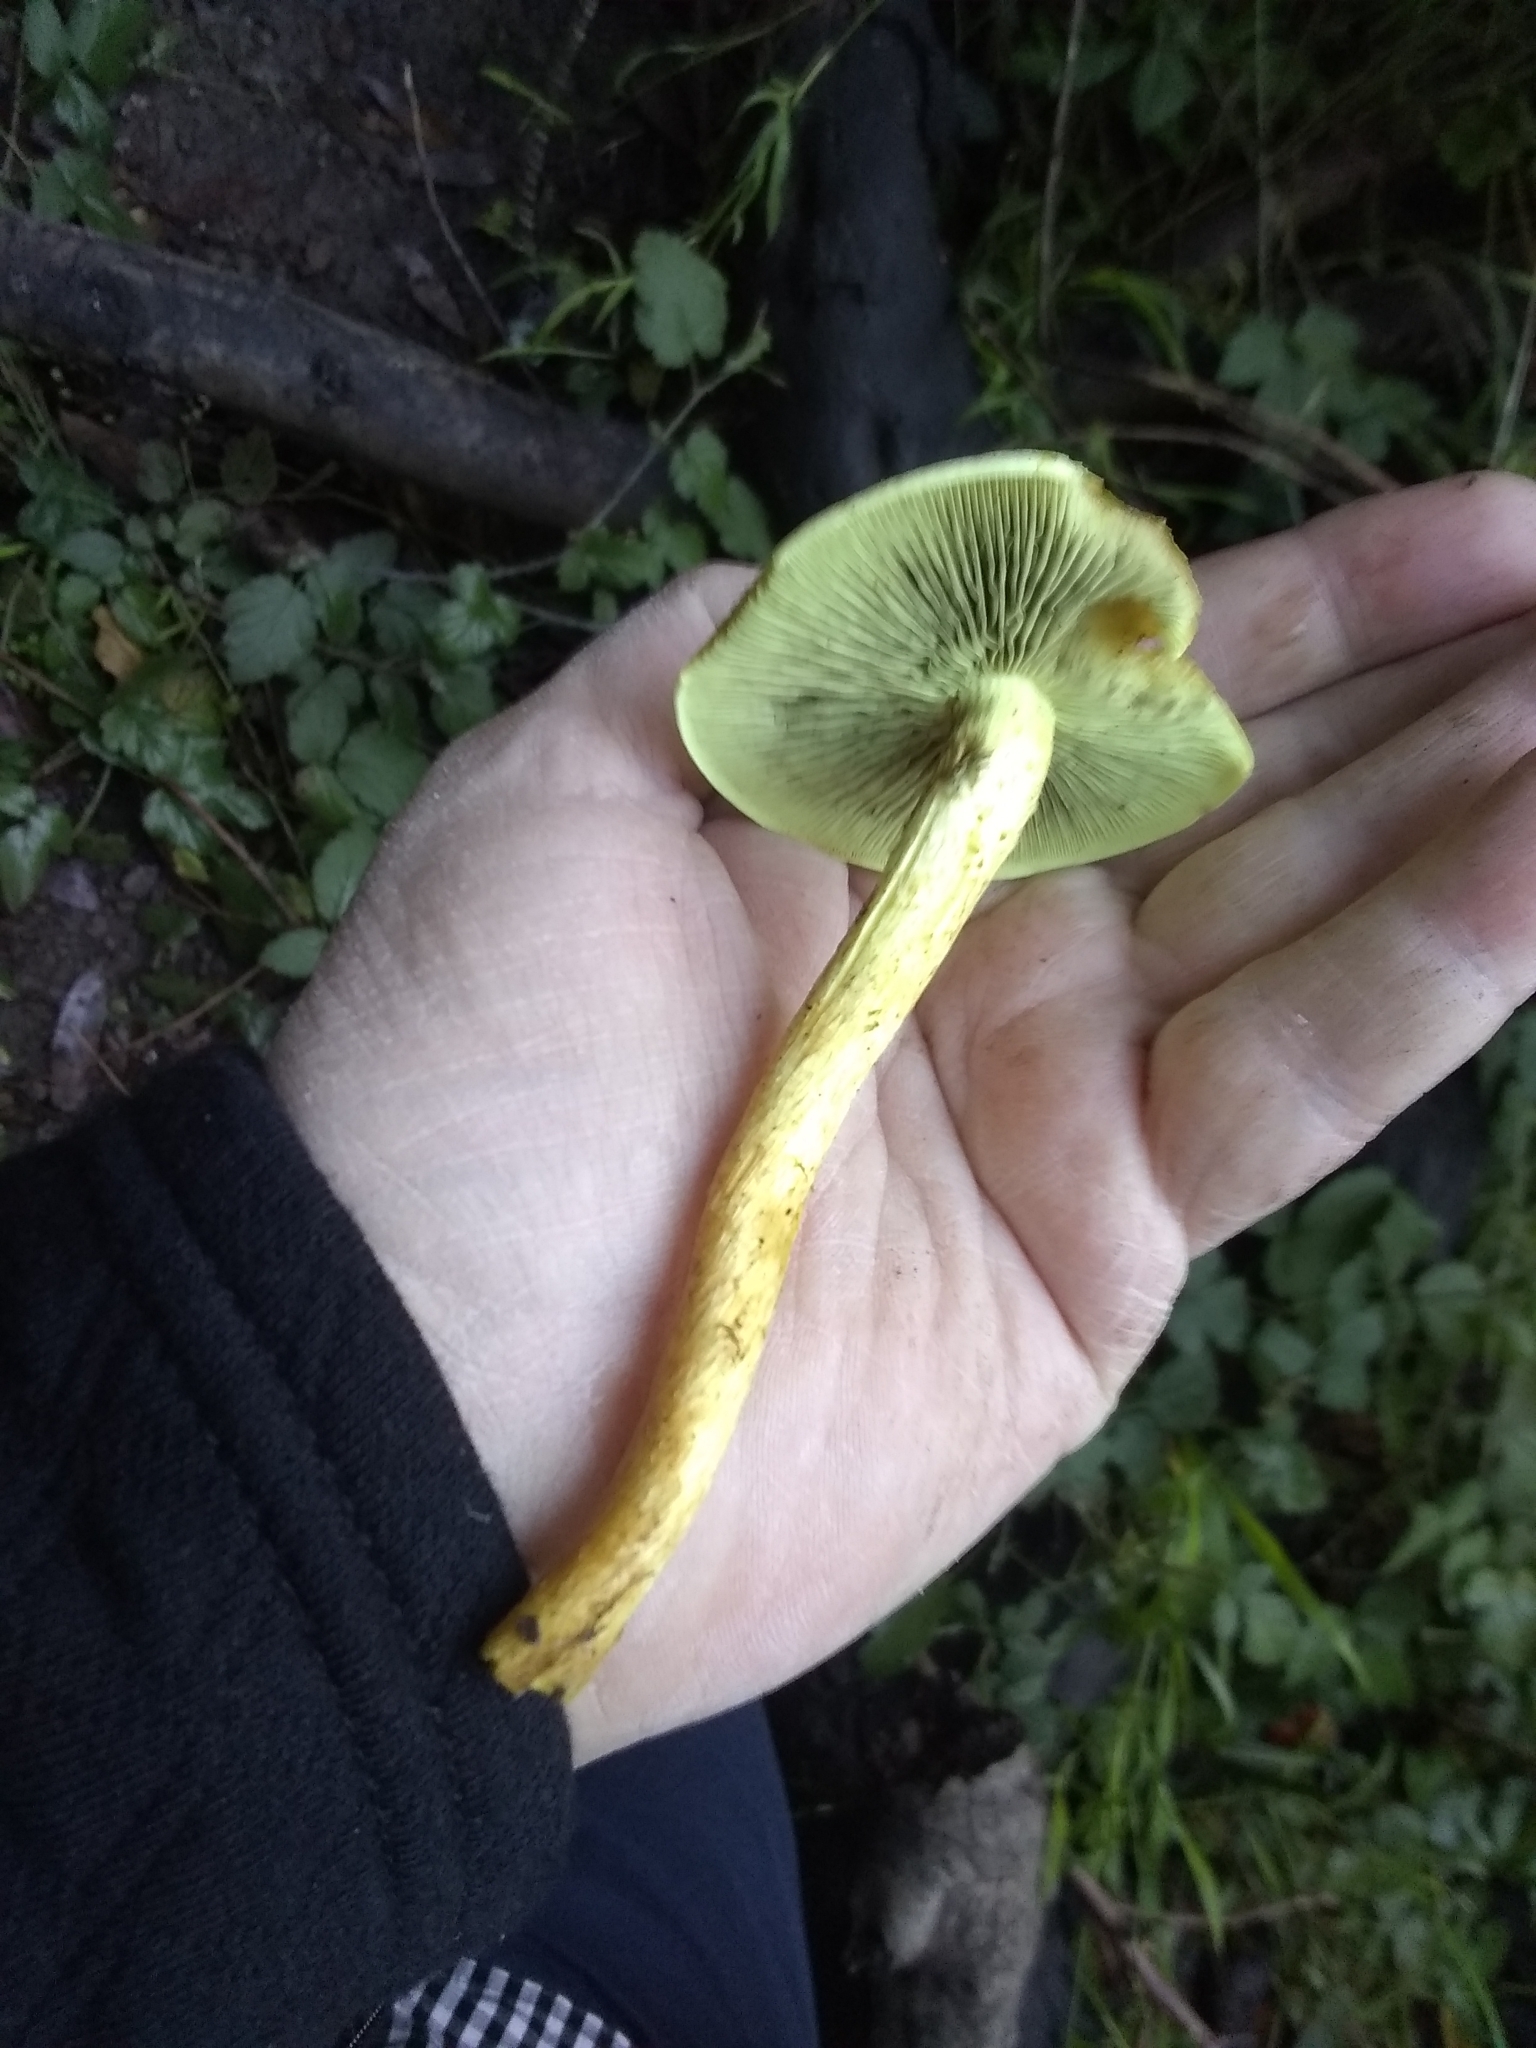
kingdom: Fungi
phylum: Basidiomycota
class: Agaricomycetes
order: Agaricales
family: Strophariaceae
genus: Hypholoma
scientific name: Hypholoma fasciculare
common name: Sulphur tuft
